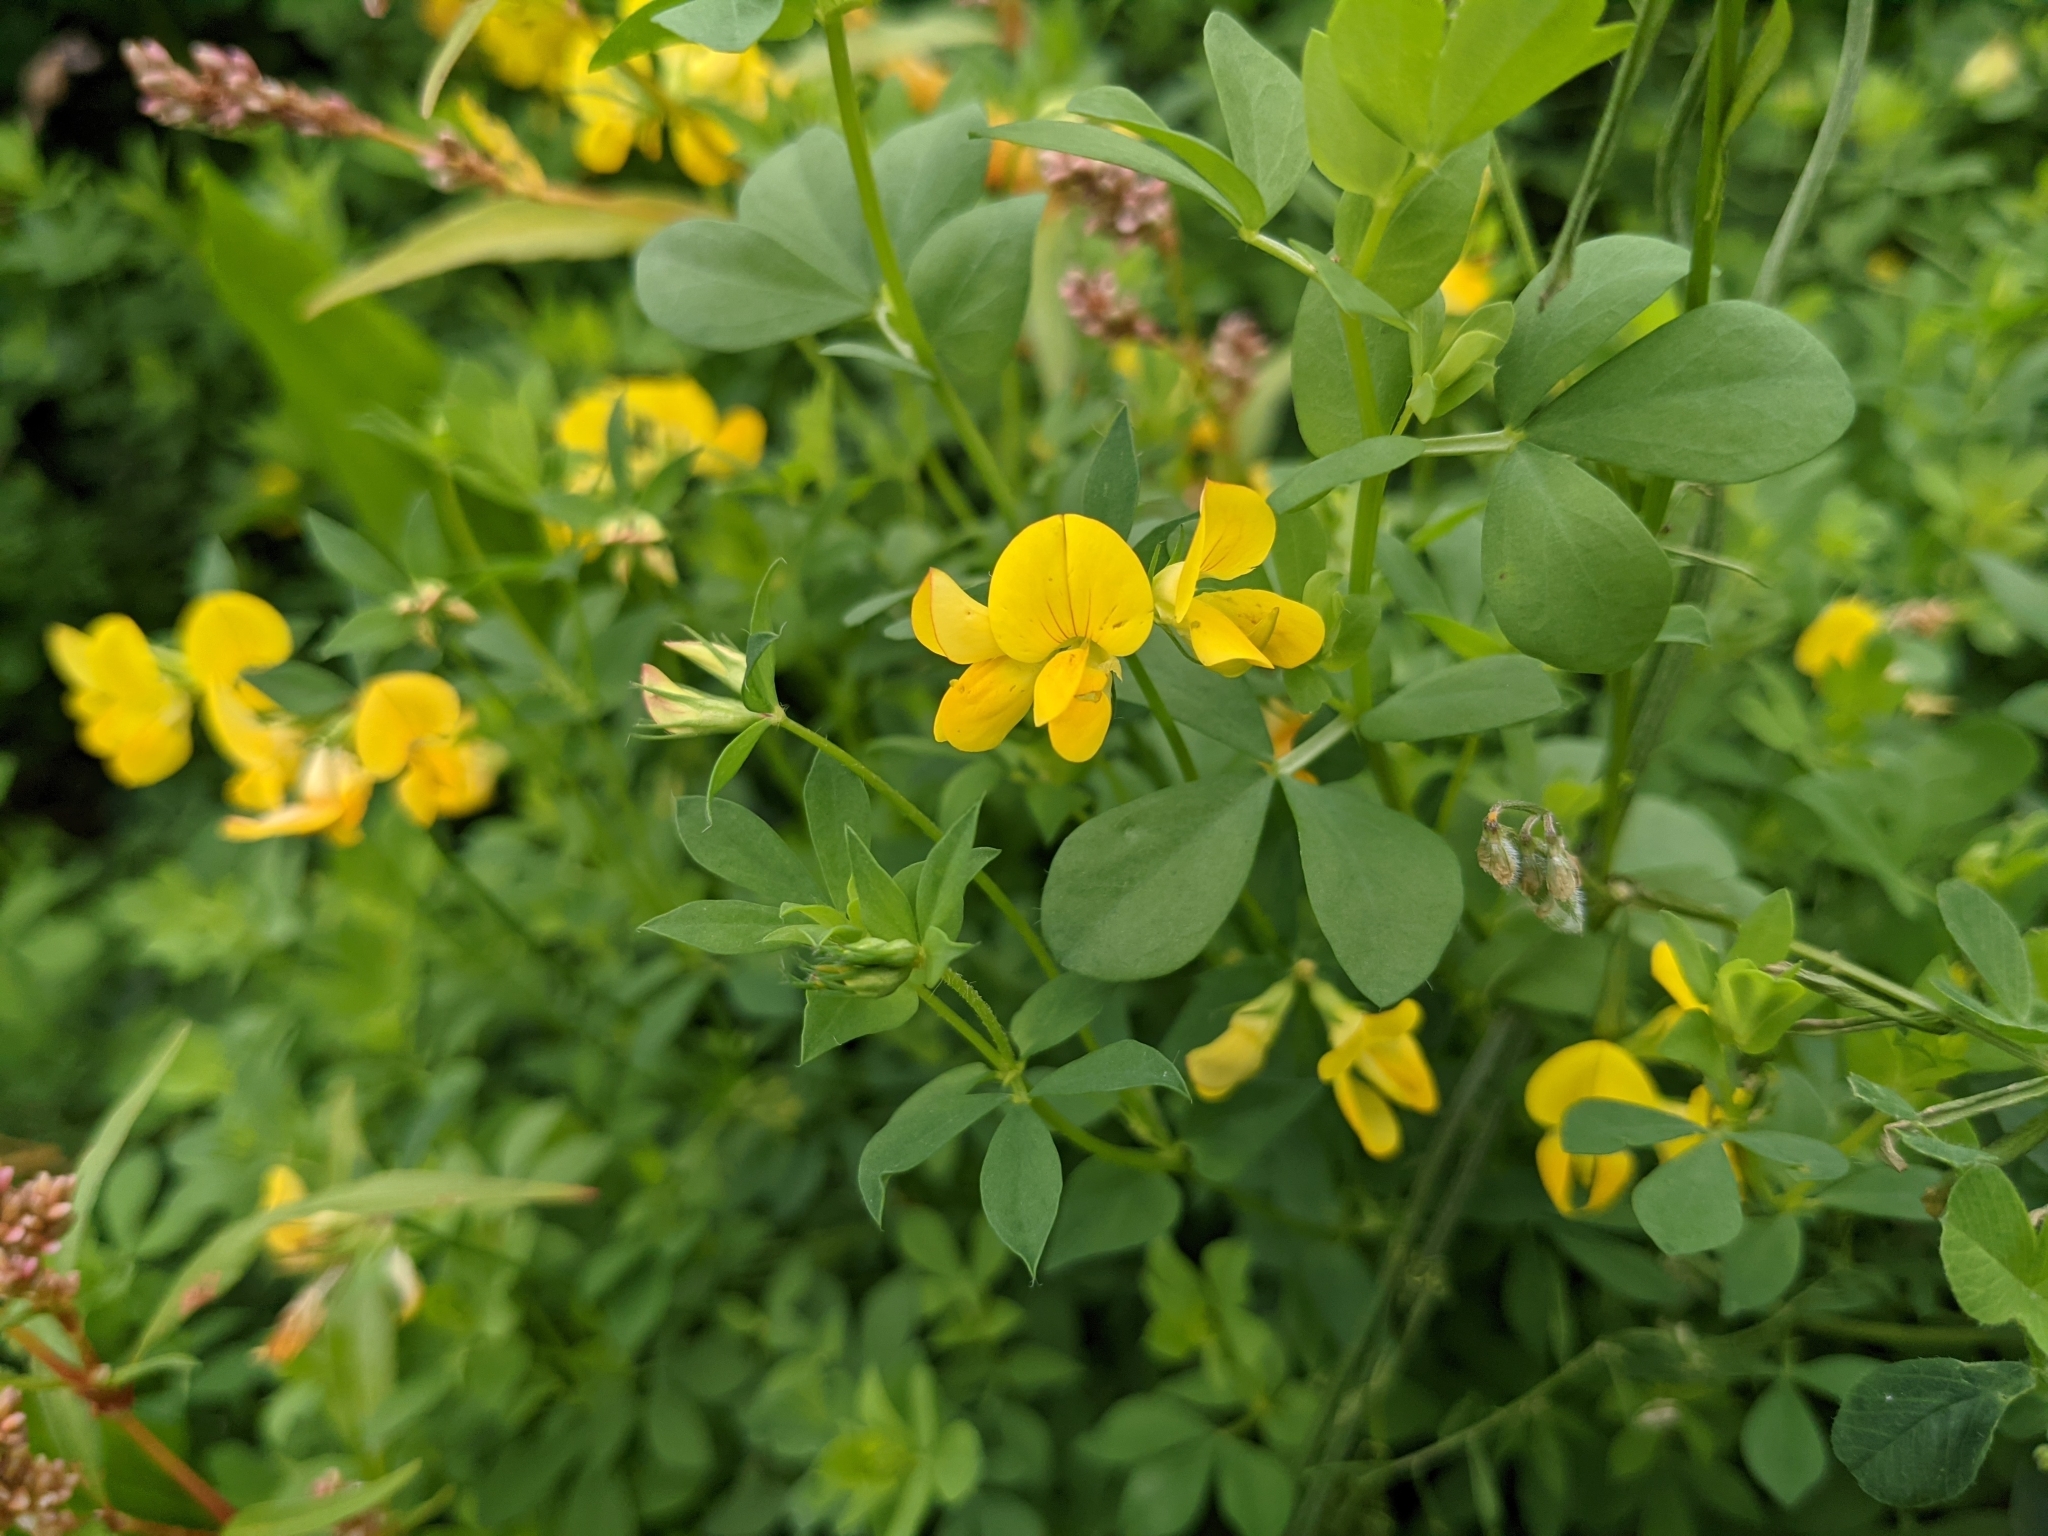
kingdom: Plantae
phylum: Tracheophyta
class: Magnoliopsida
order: Fabales
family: Fabaceae
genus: Lotus
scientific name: Lotus corniculatus
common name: Common bird's-foot-trefoil
